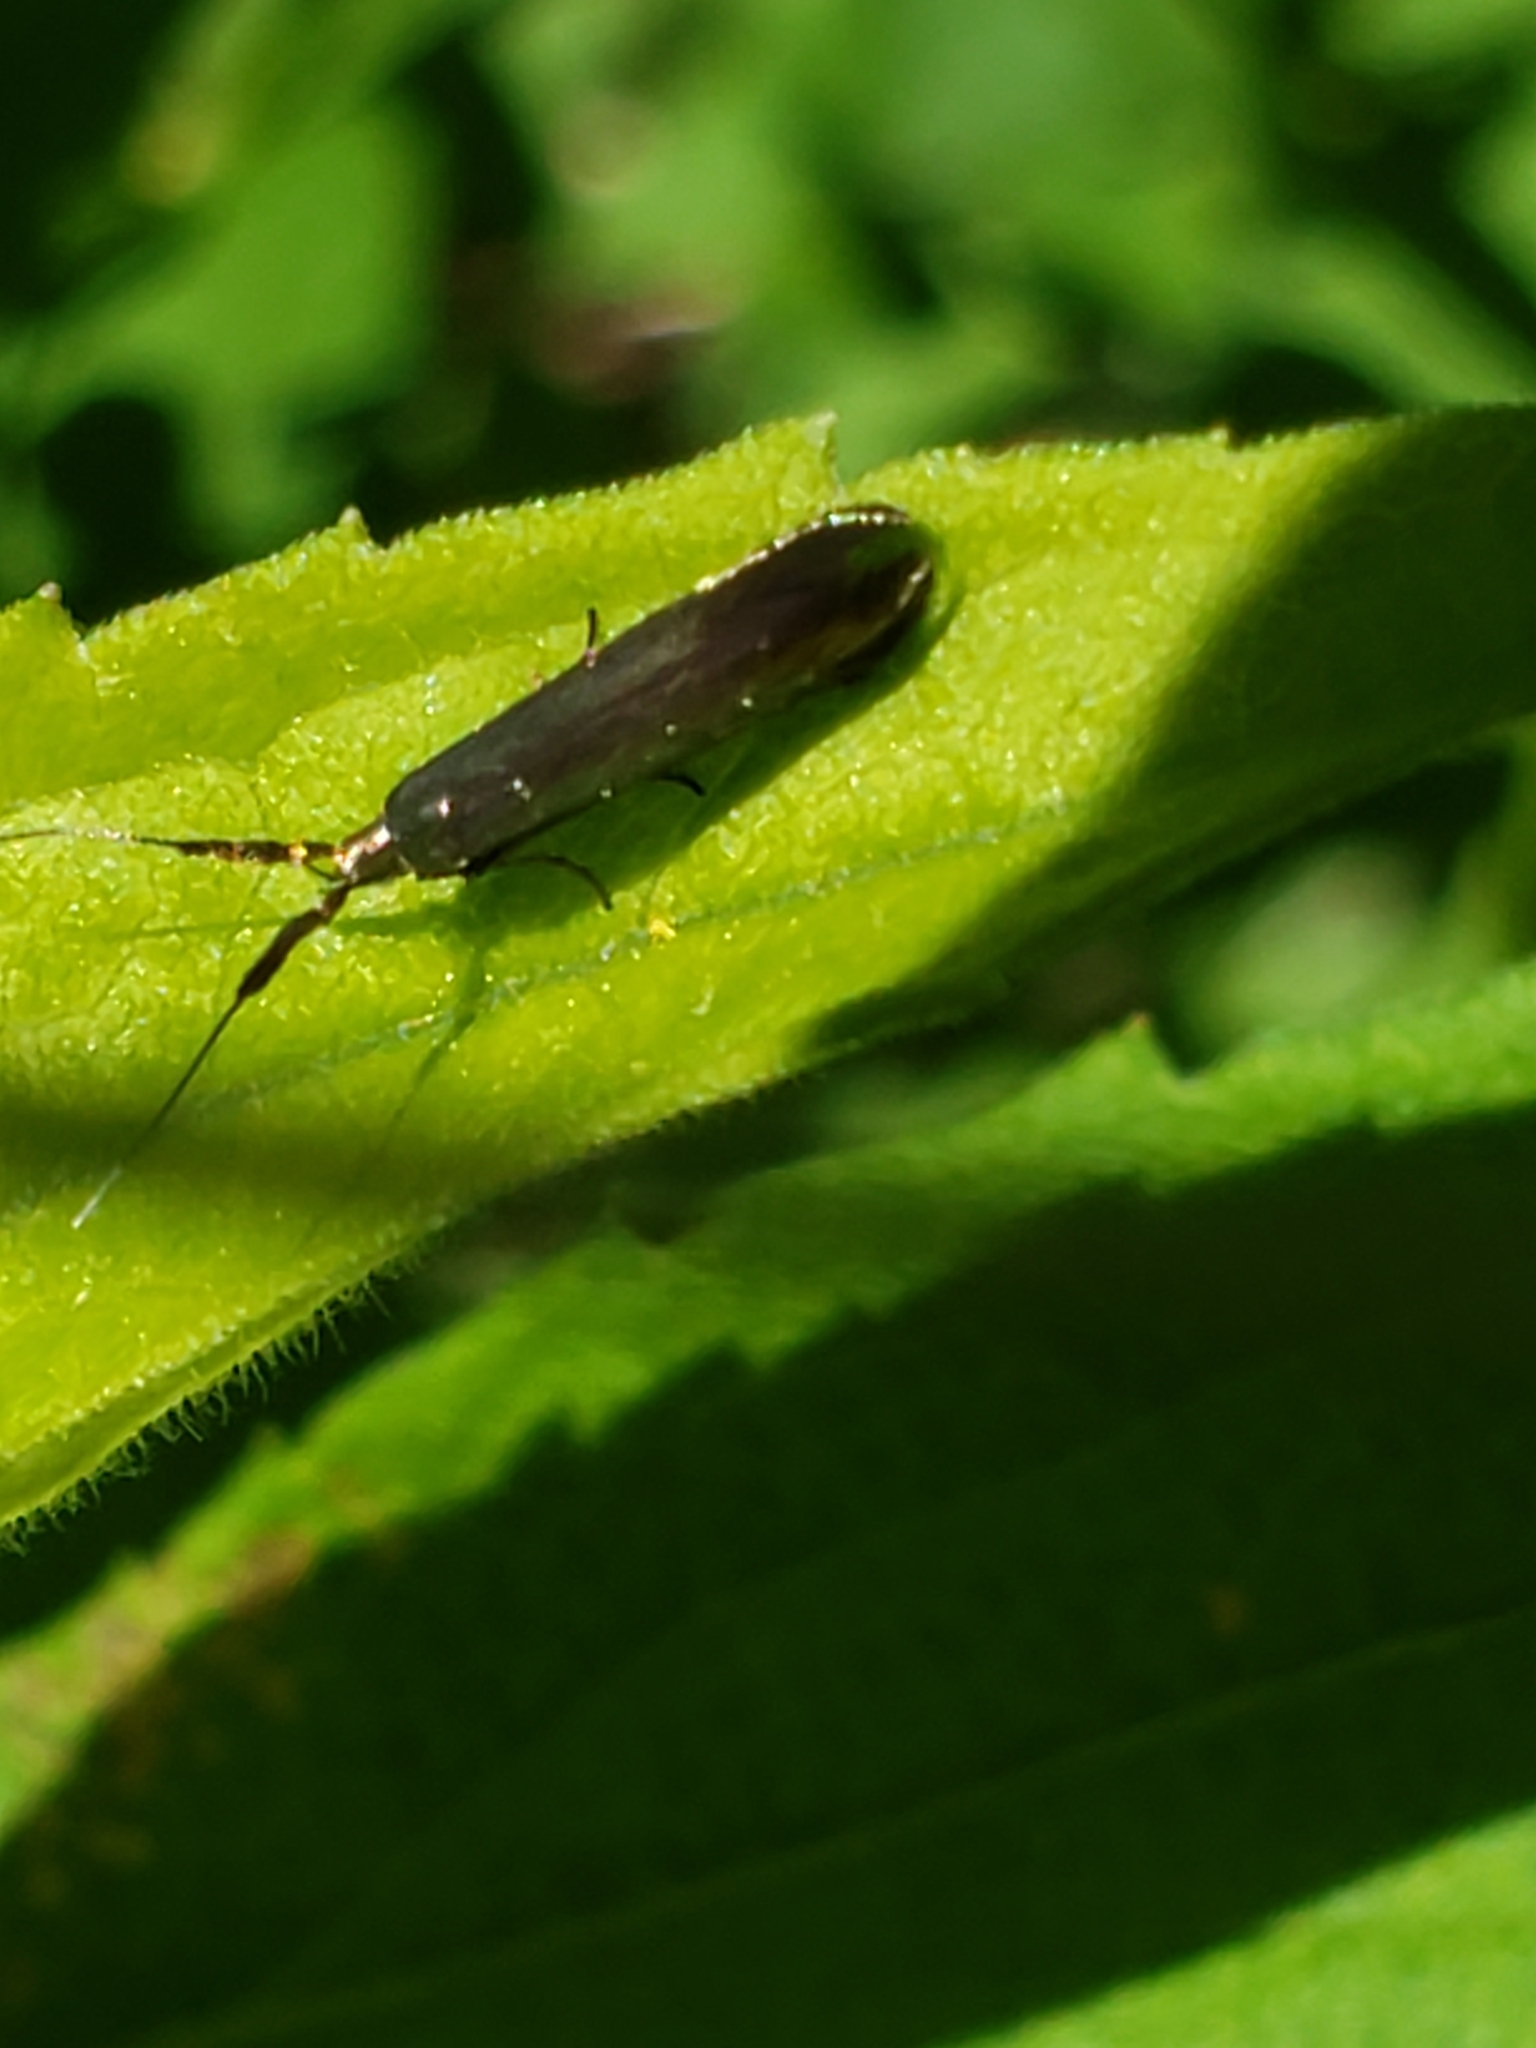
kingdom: Animalia
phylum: Arthropoda
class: Insecta
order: Lepidoptera
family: Coleophoridae
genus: Coleophora
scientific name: Coleophora deauratella
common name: Red-clover case-bearer
